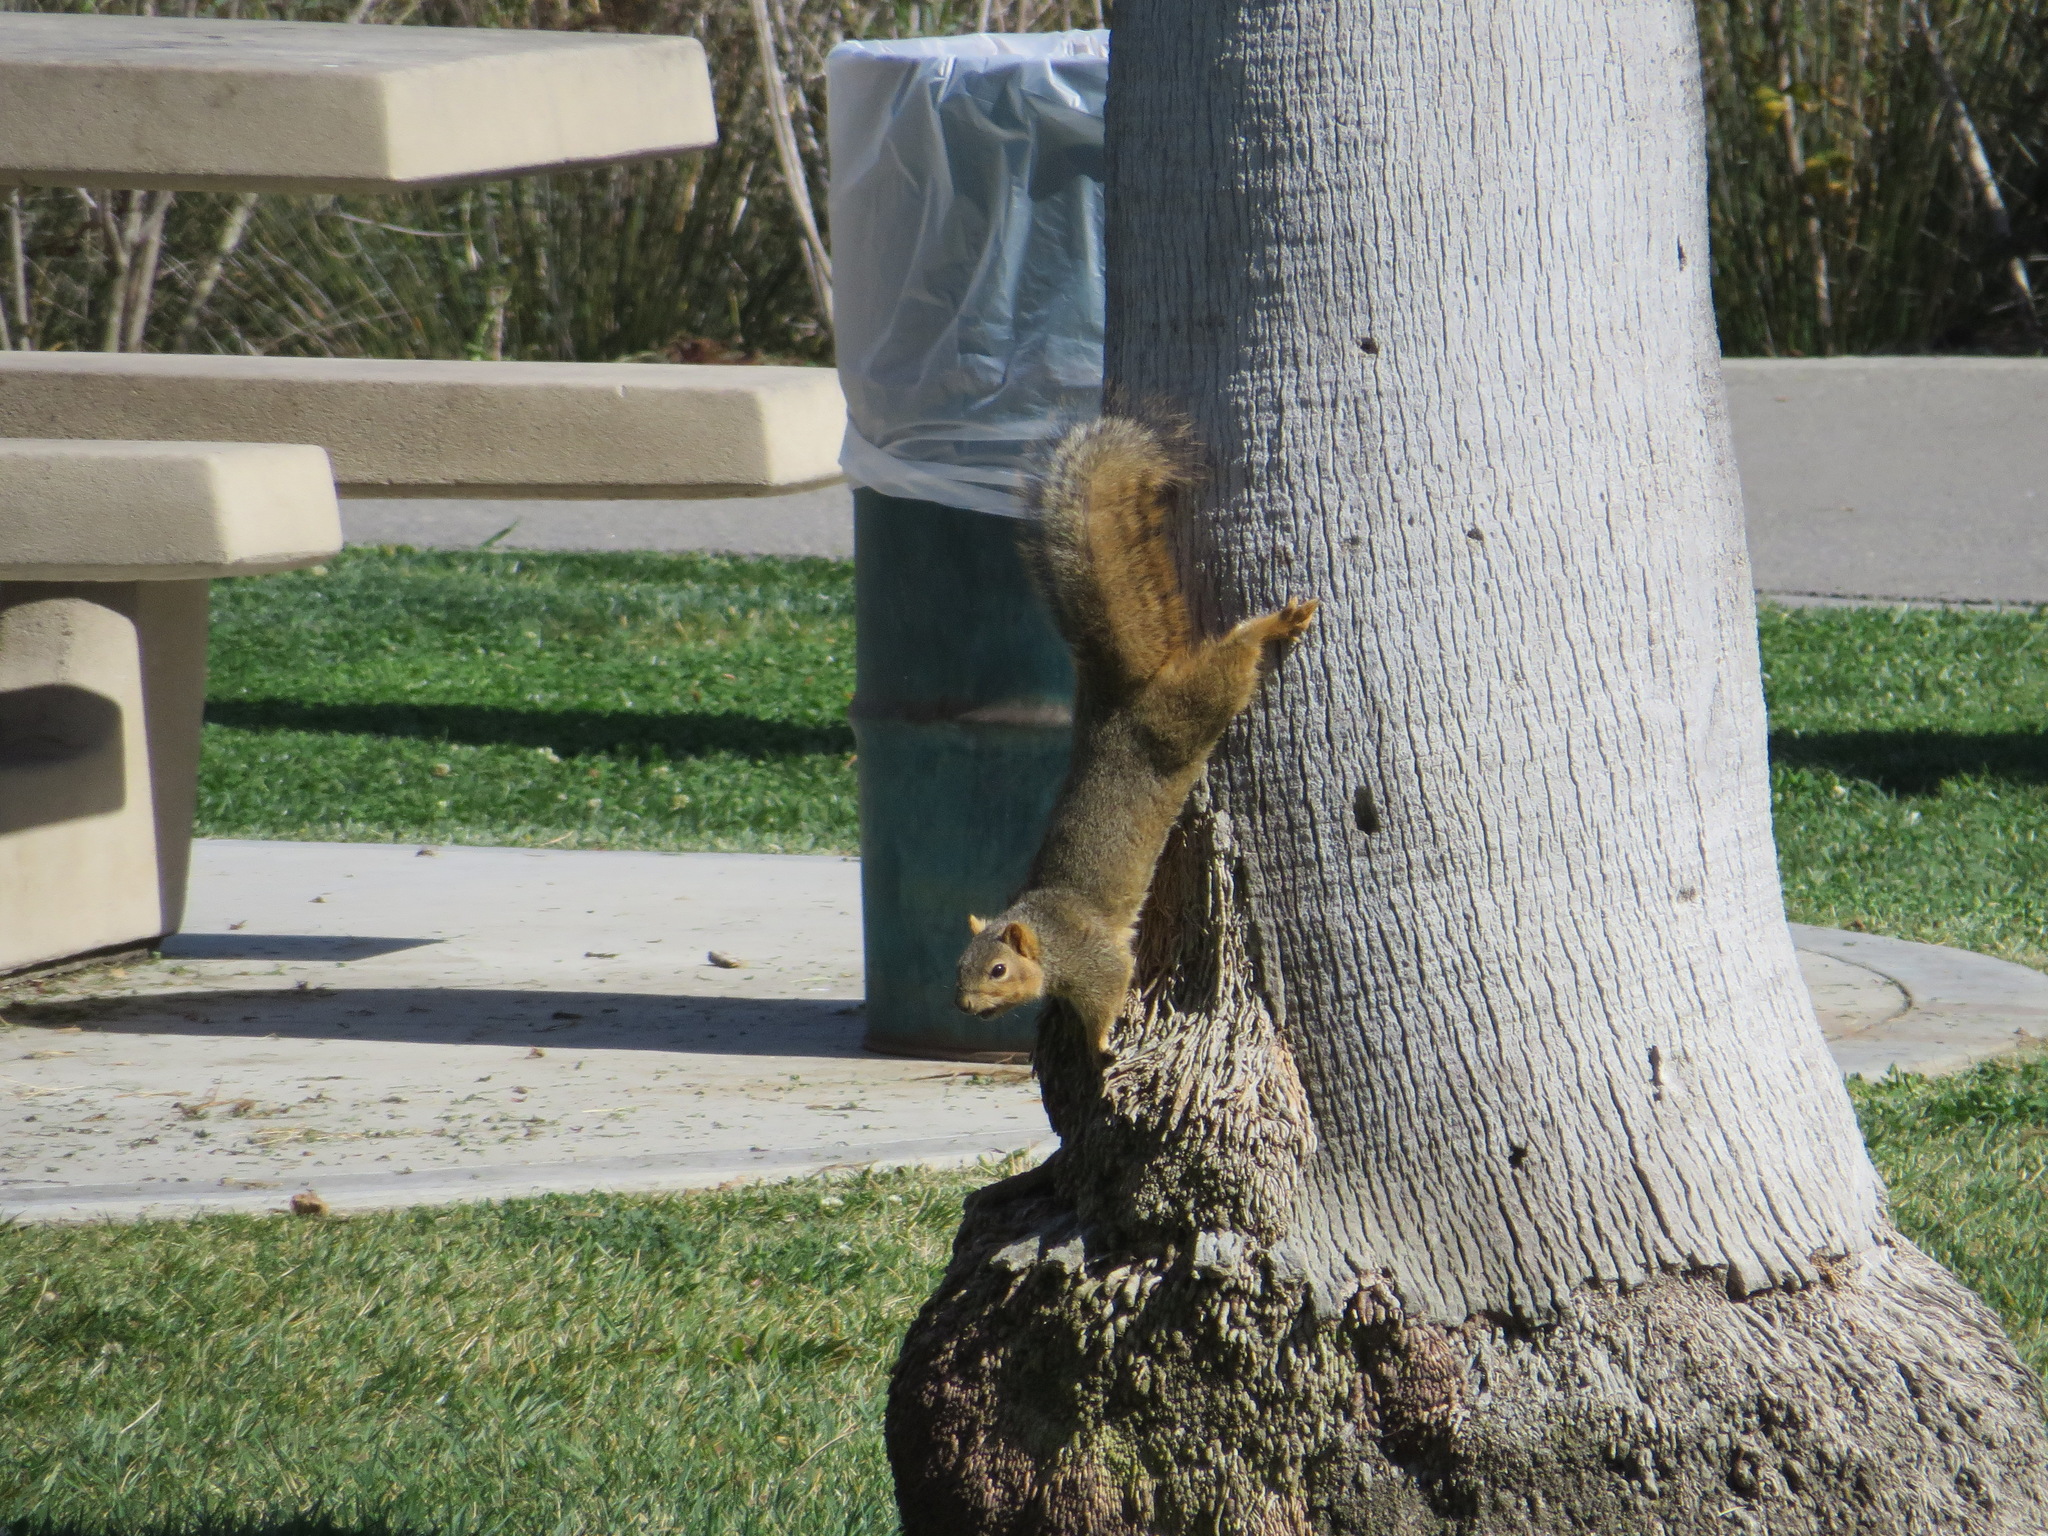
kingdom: Animalia
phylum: Chordata
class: Mammalia
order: Rodentia
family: Sciuridae
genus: Sciurus
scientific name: Sciurus niger
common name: Fox squirrel
